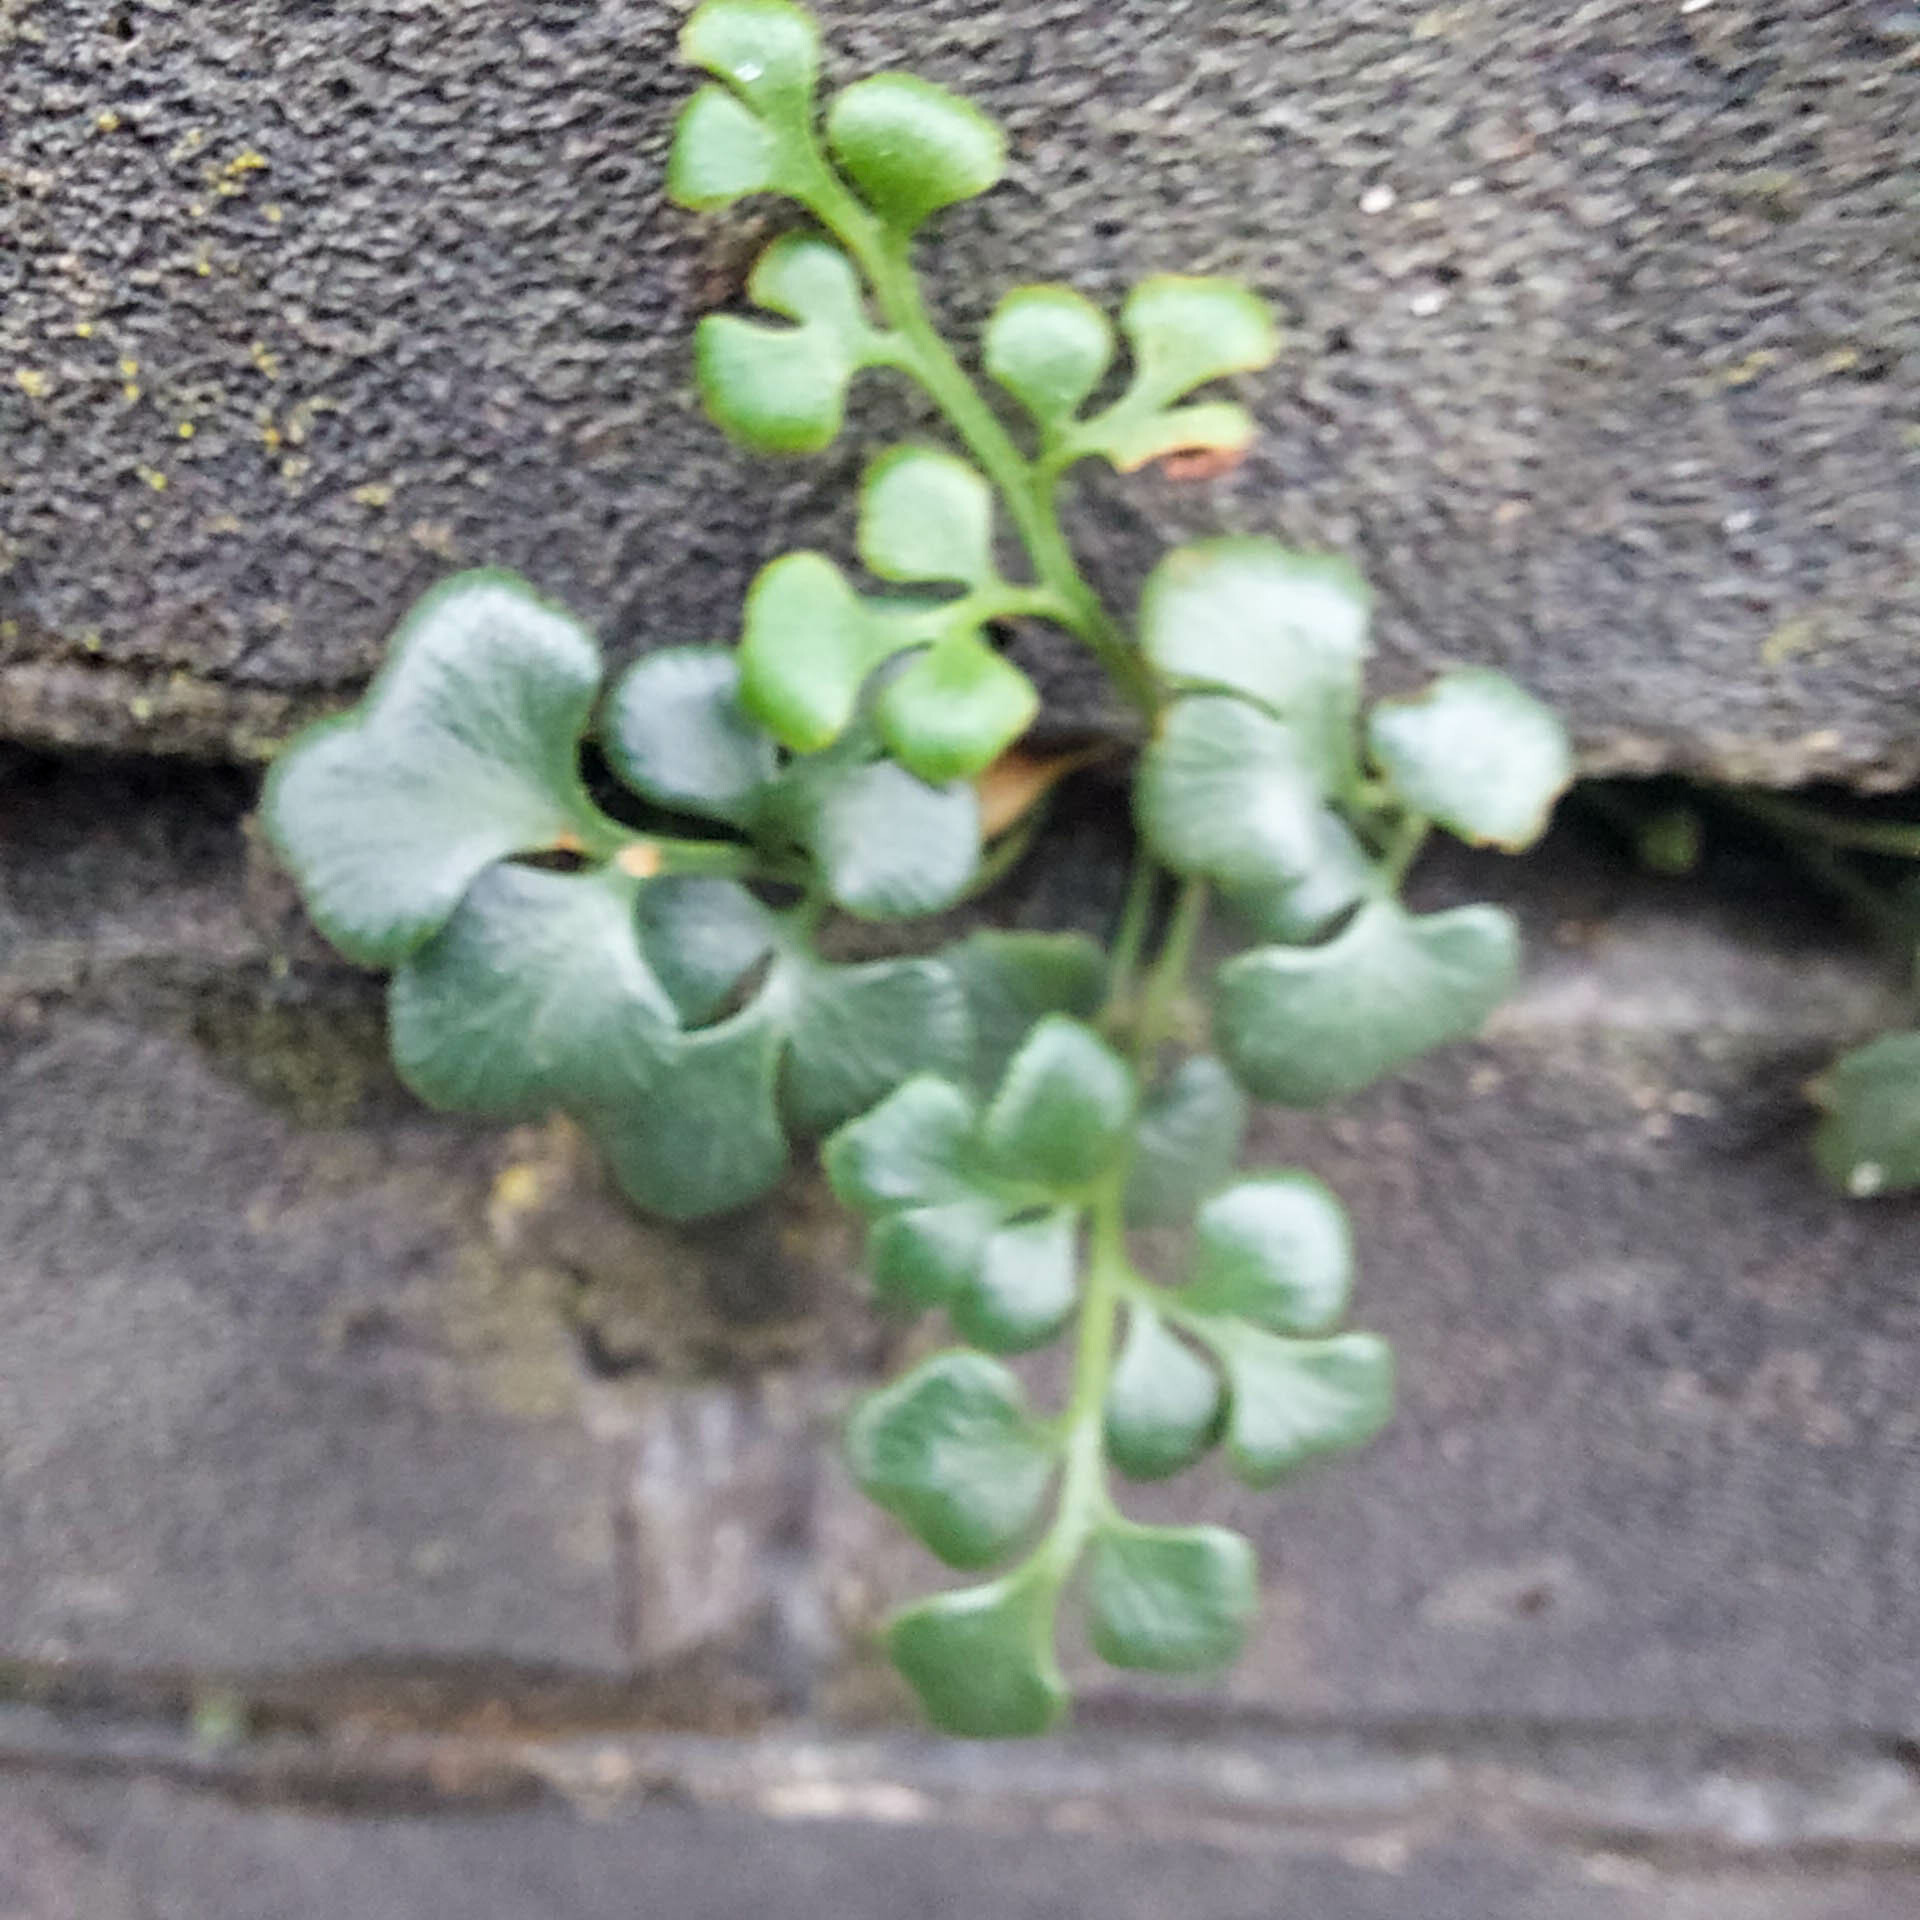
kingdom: Plantae
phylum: Tracheophyta
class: Polypodiopsida
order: Polypodiales
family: Aspleniaceae
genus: Asplenium
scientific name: Asplenium ruta-muraria
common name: Wall-rue
